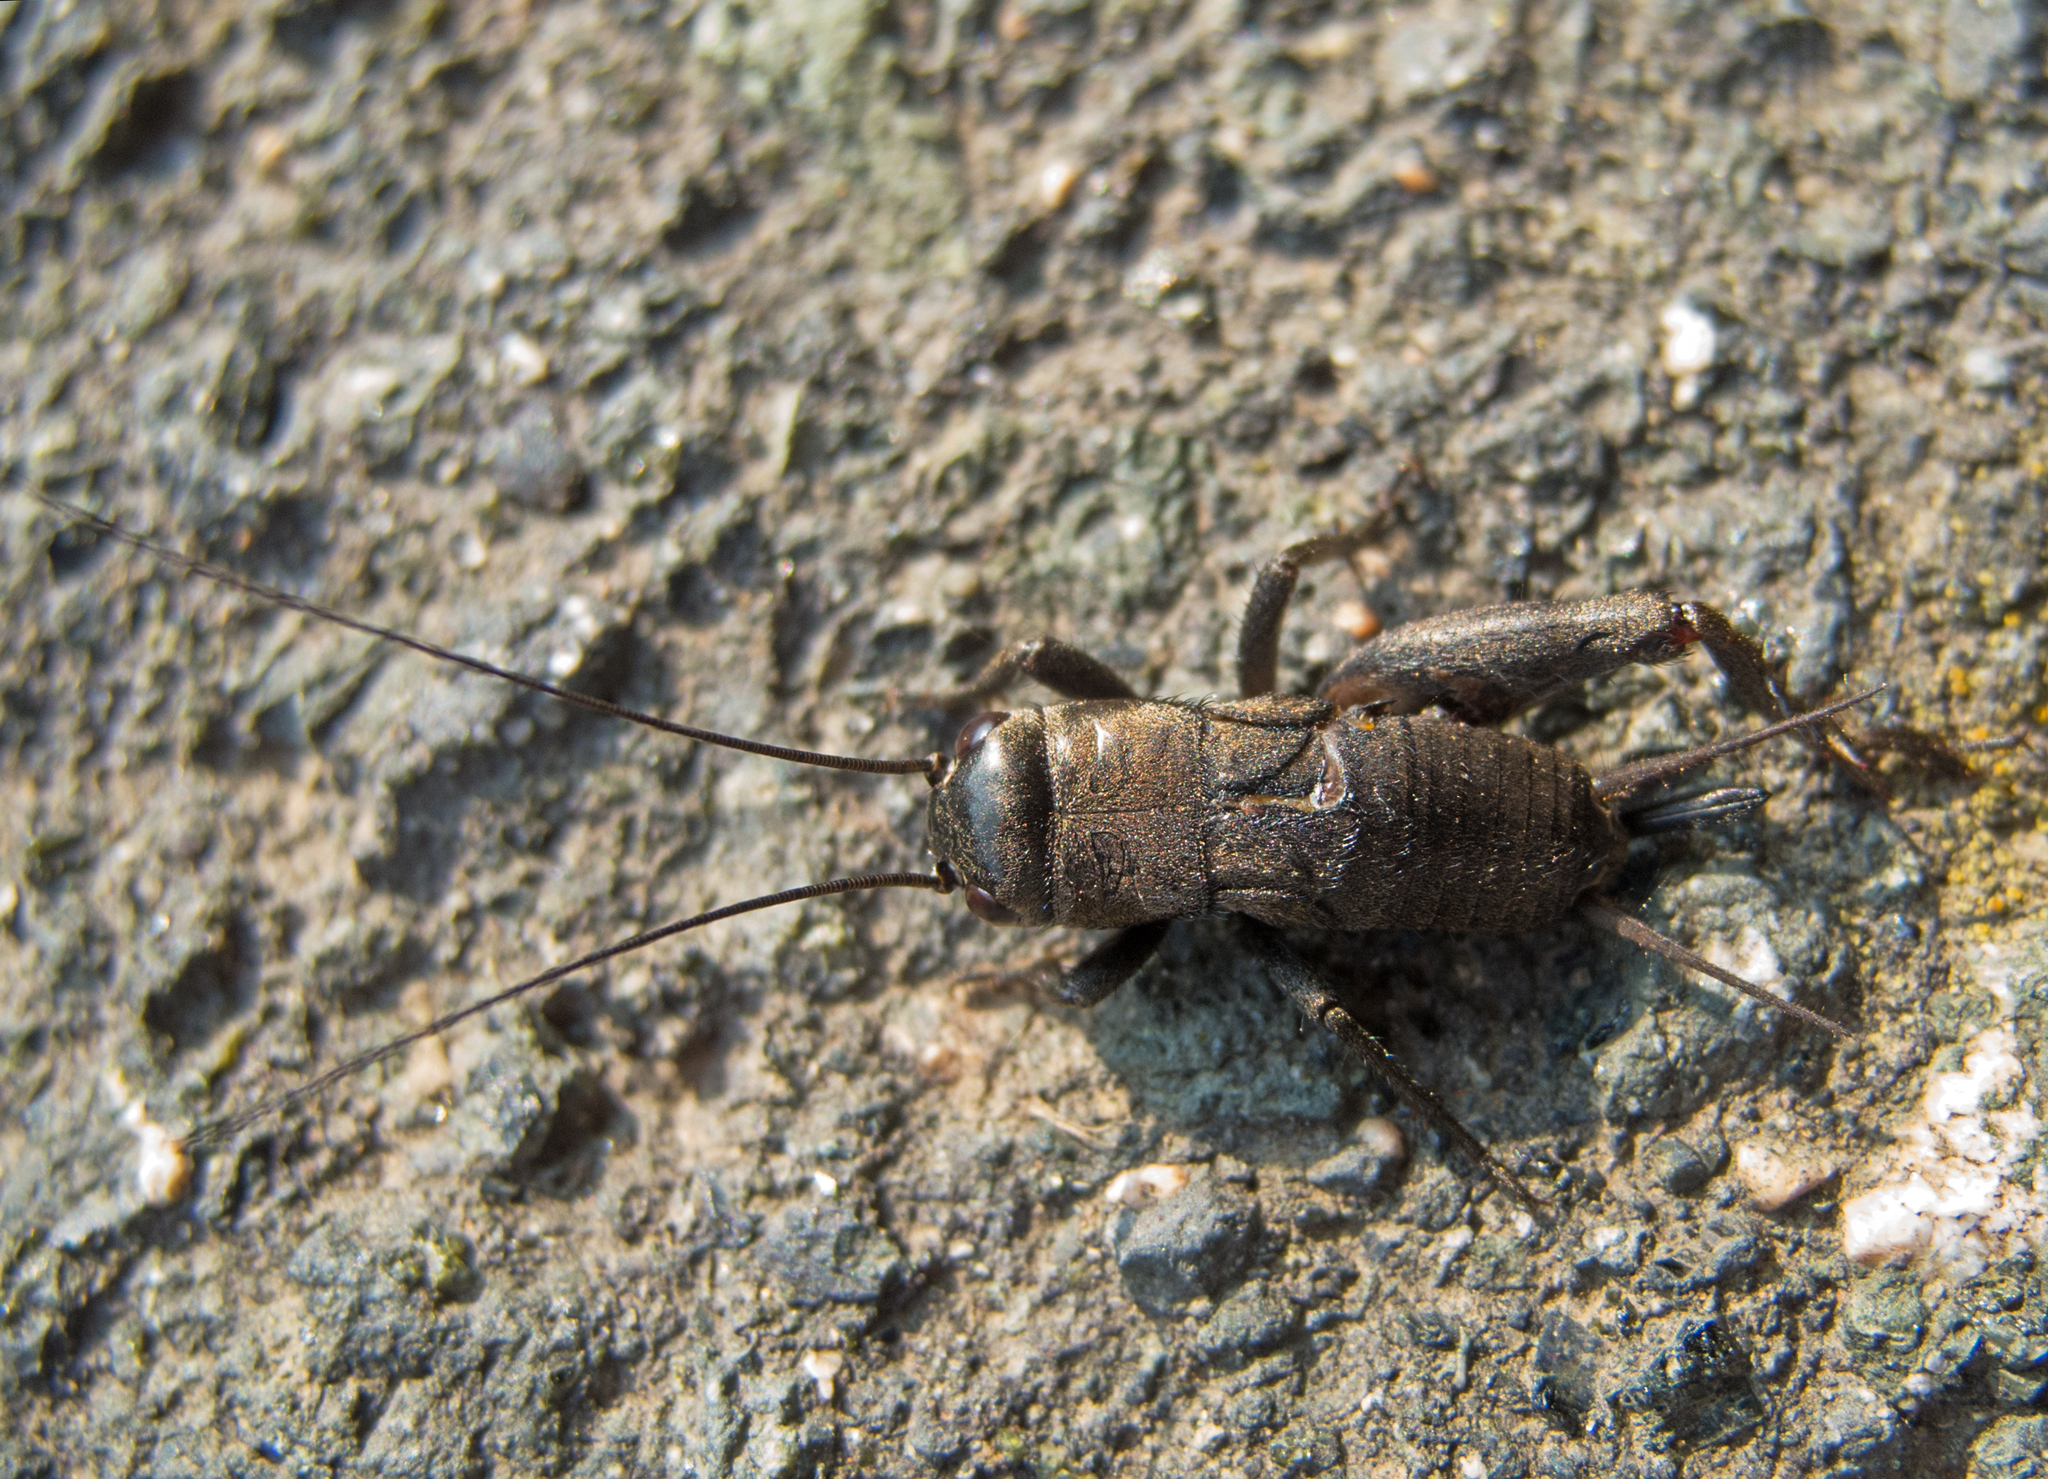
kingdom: Animalia
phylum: Arthropoda
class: Insecta
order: Orthoptera
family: Gryllidae
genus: Melanogryllus
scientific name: Melanogryllus desertus
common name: Desert cricket
